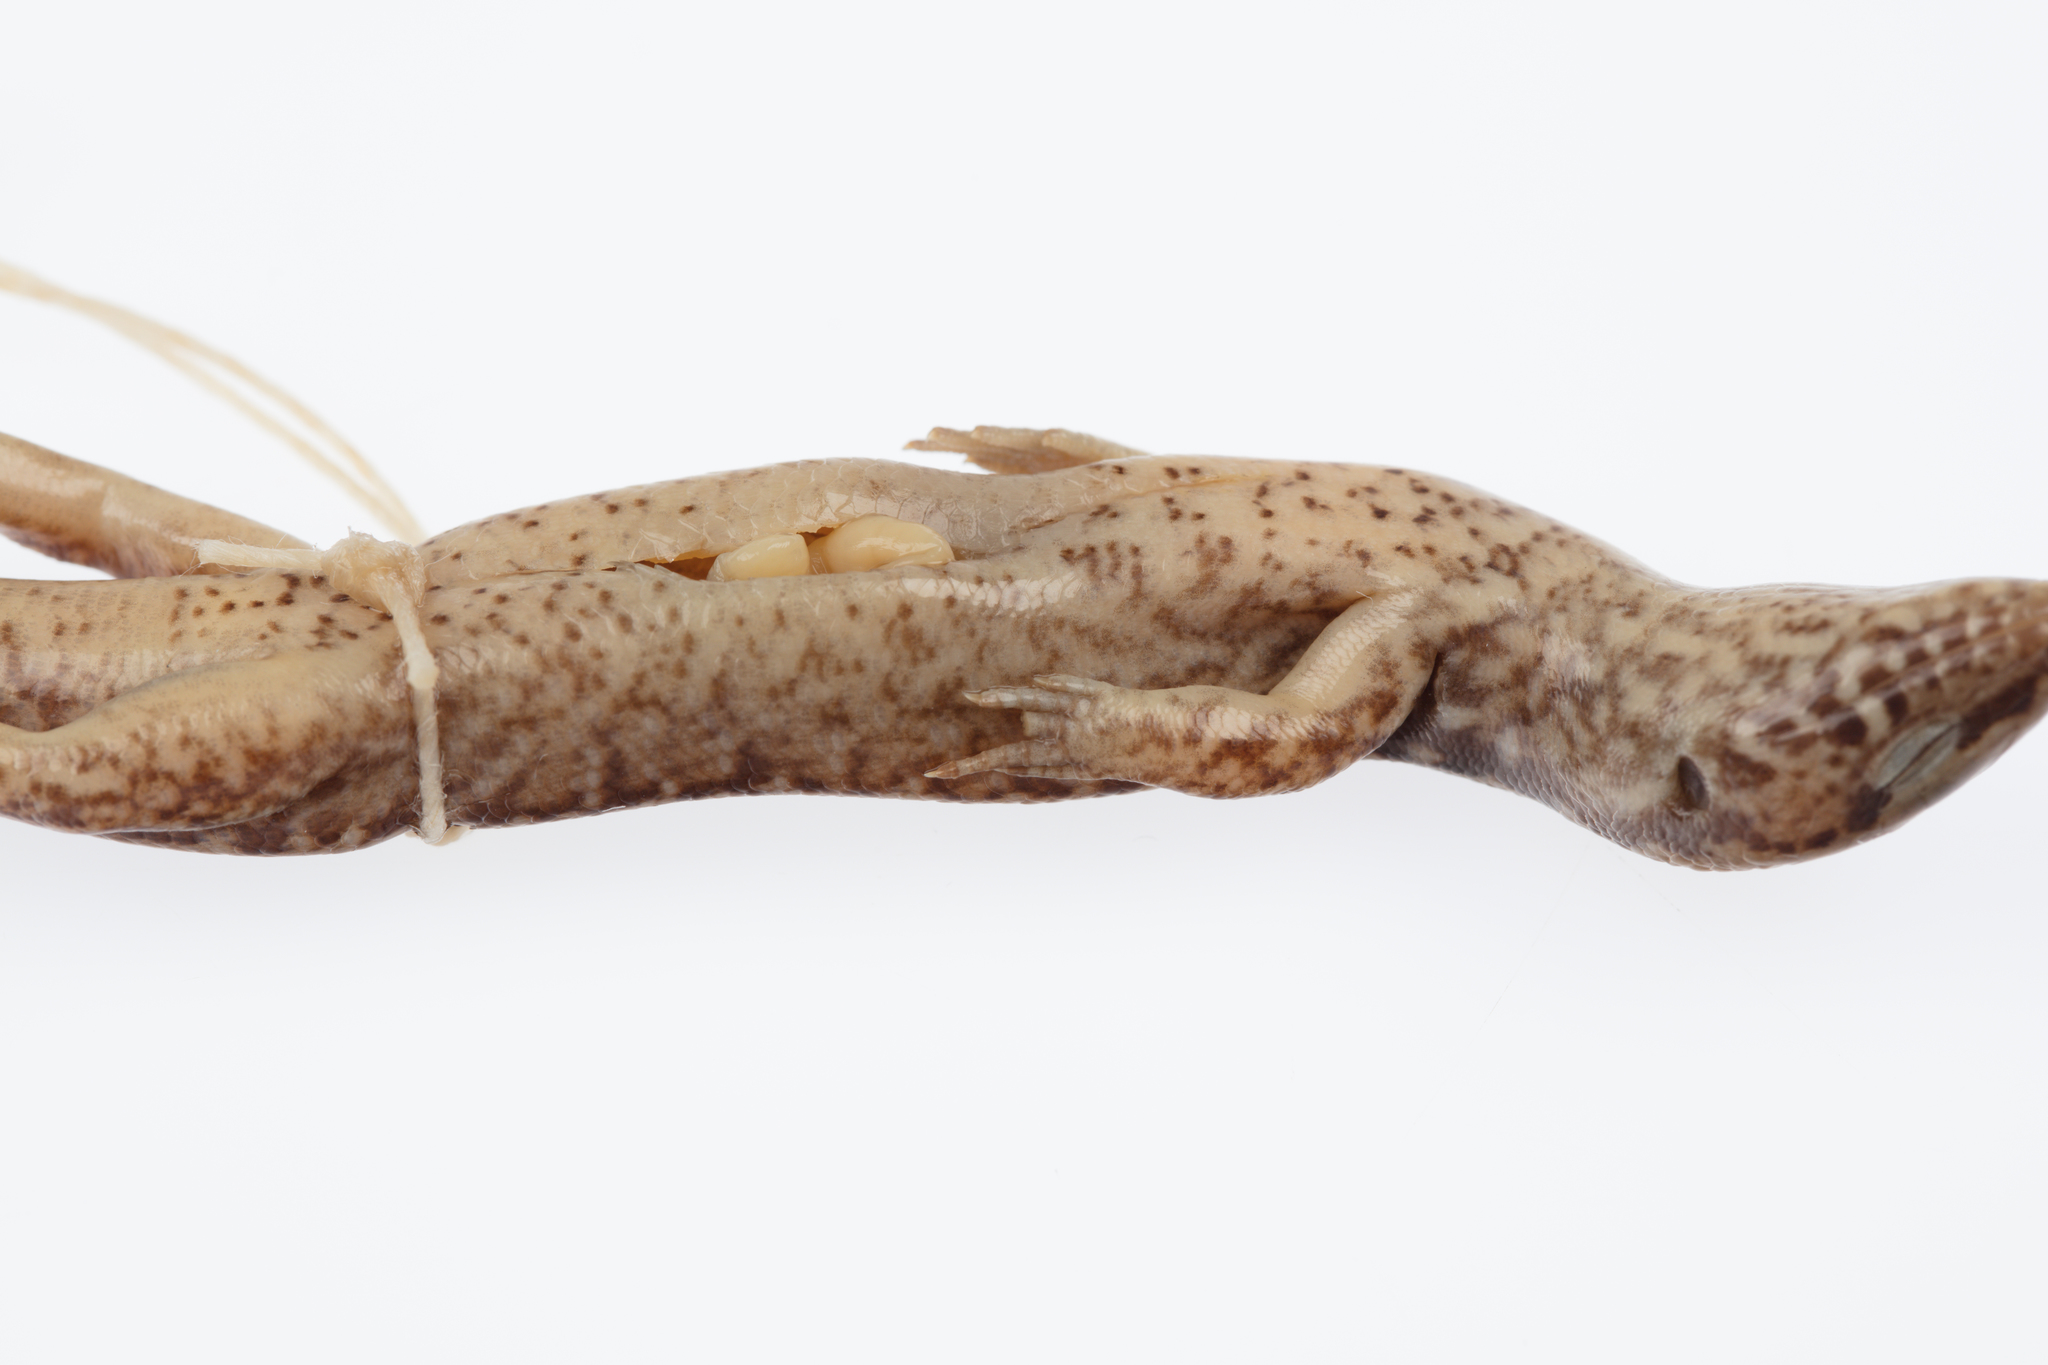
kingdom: Animalia
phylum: Chordata
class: Squamata
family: Scincidae
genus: Oligosoma
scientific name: Oligosoma pachysomaticum
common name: Coromandel skink
